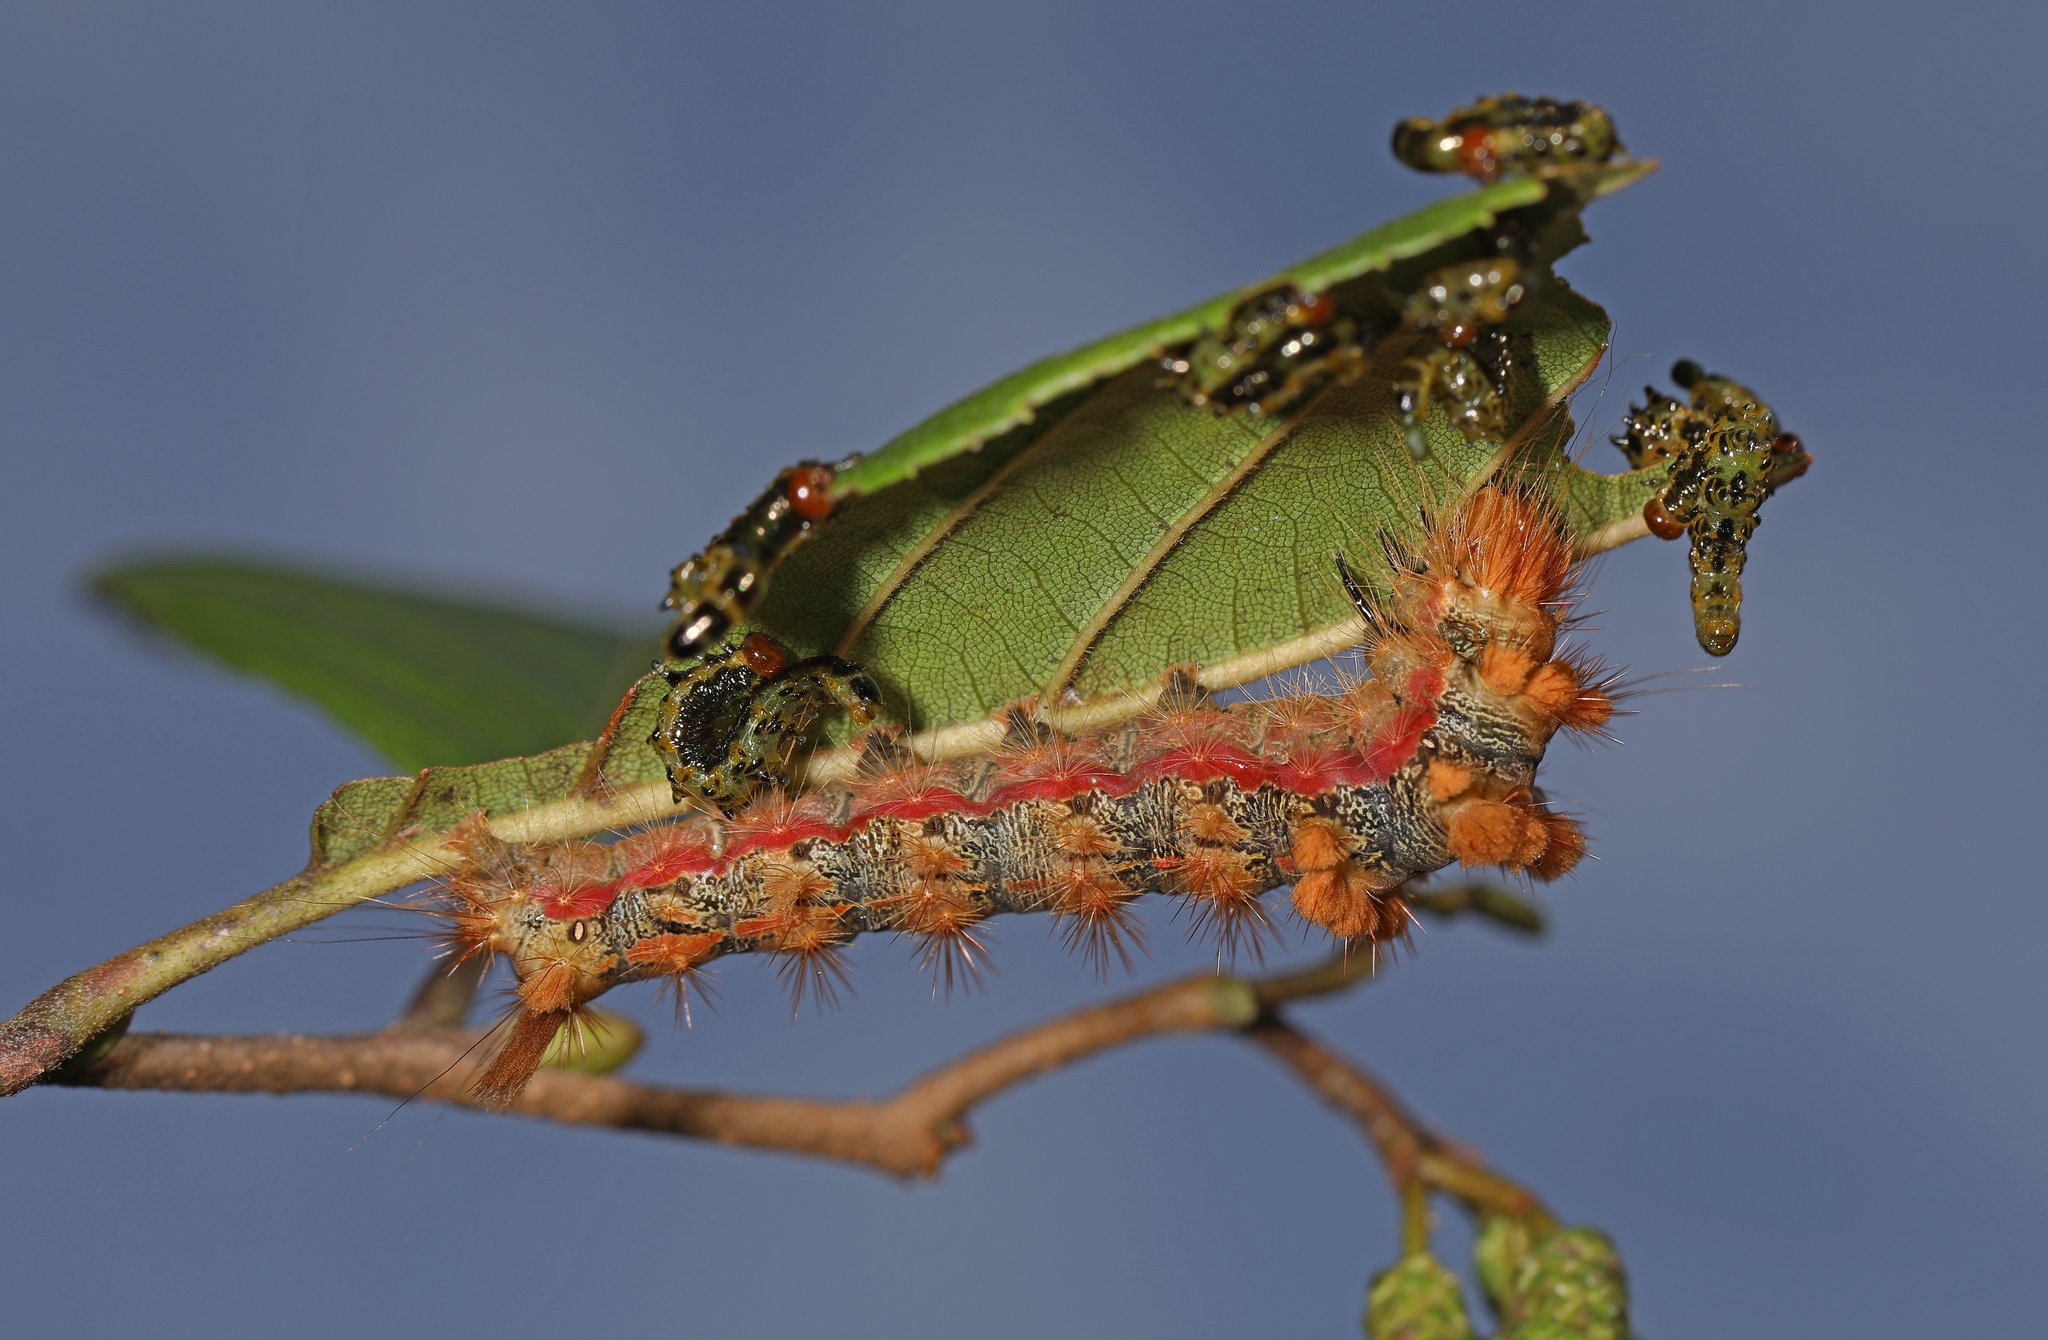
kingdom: Animalia
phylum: Arthropoda
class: Insecta
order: Lepidoptera
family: Noctuidae
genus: Acronicta
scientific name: Acronicta impleta
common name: Powdered dagger
